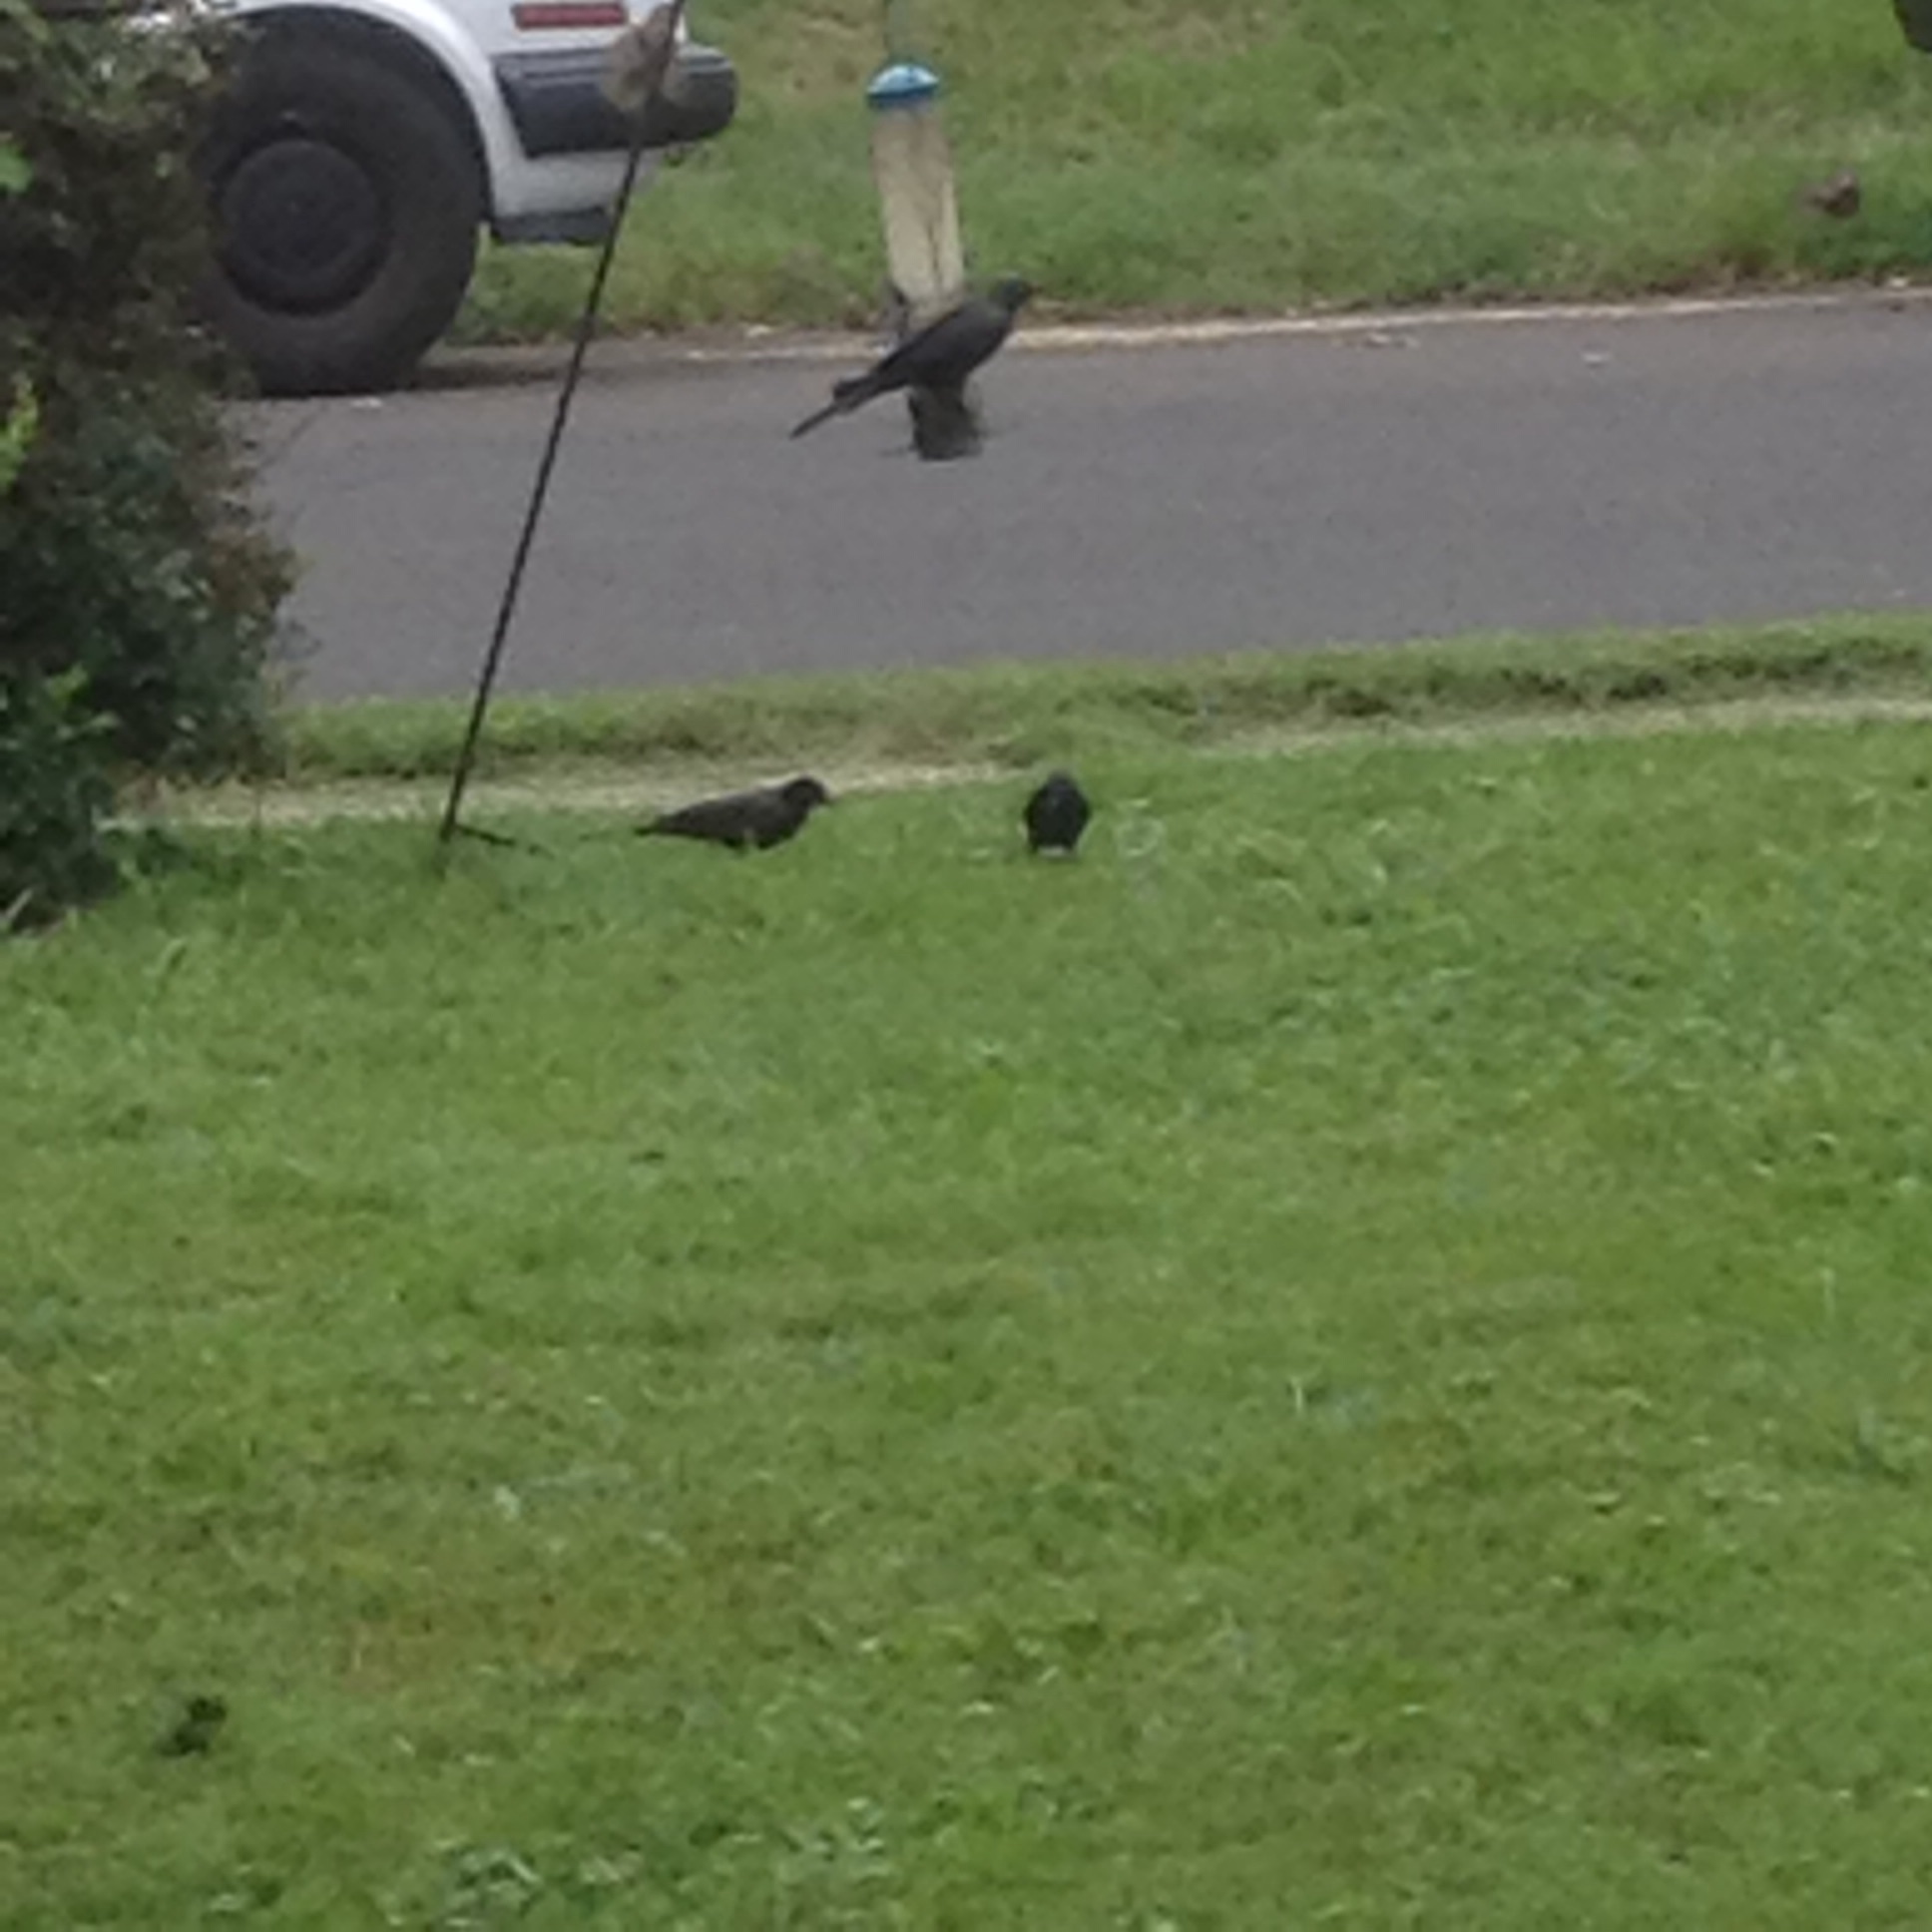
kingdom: Animalia
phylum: Chordata
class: Aves
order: Passeriformes
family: Icteridae
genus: Quiscalus
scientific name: Quiscalus quiscula
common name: Common grackle
